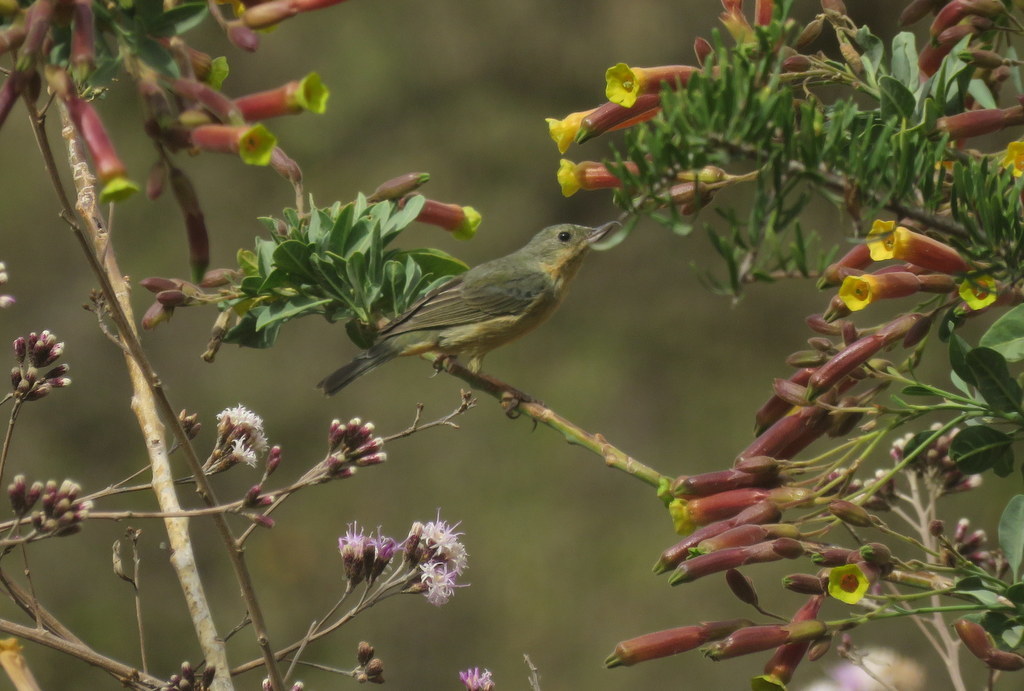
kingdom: Animalia
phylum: Chordata
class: Aves
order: Passeriformes
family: Thraupidae
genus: Diglossa
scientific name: Diglossa sittoides
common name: Rusty flowerpiercer
